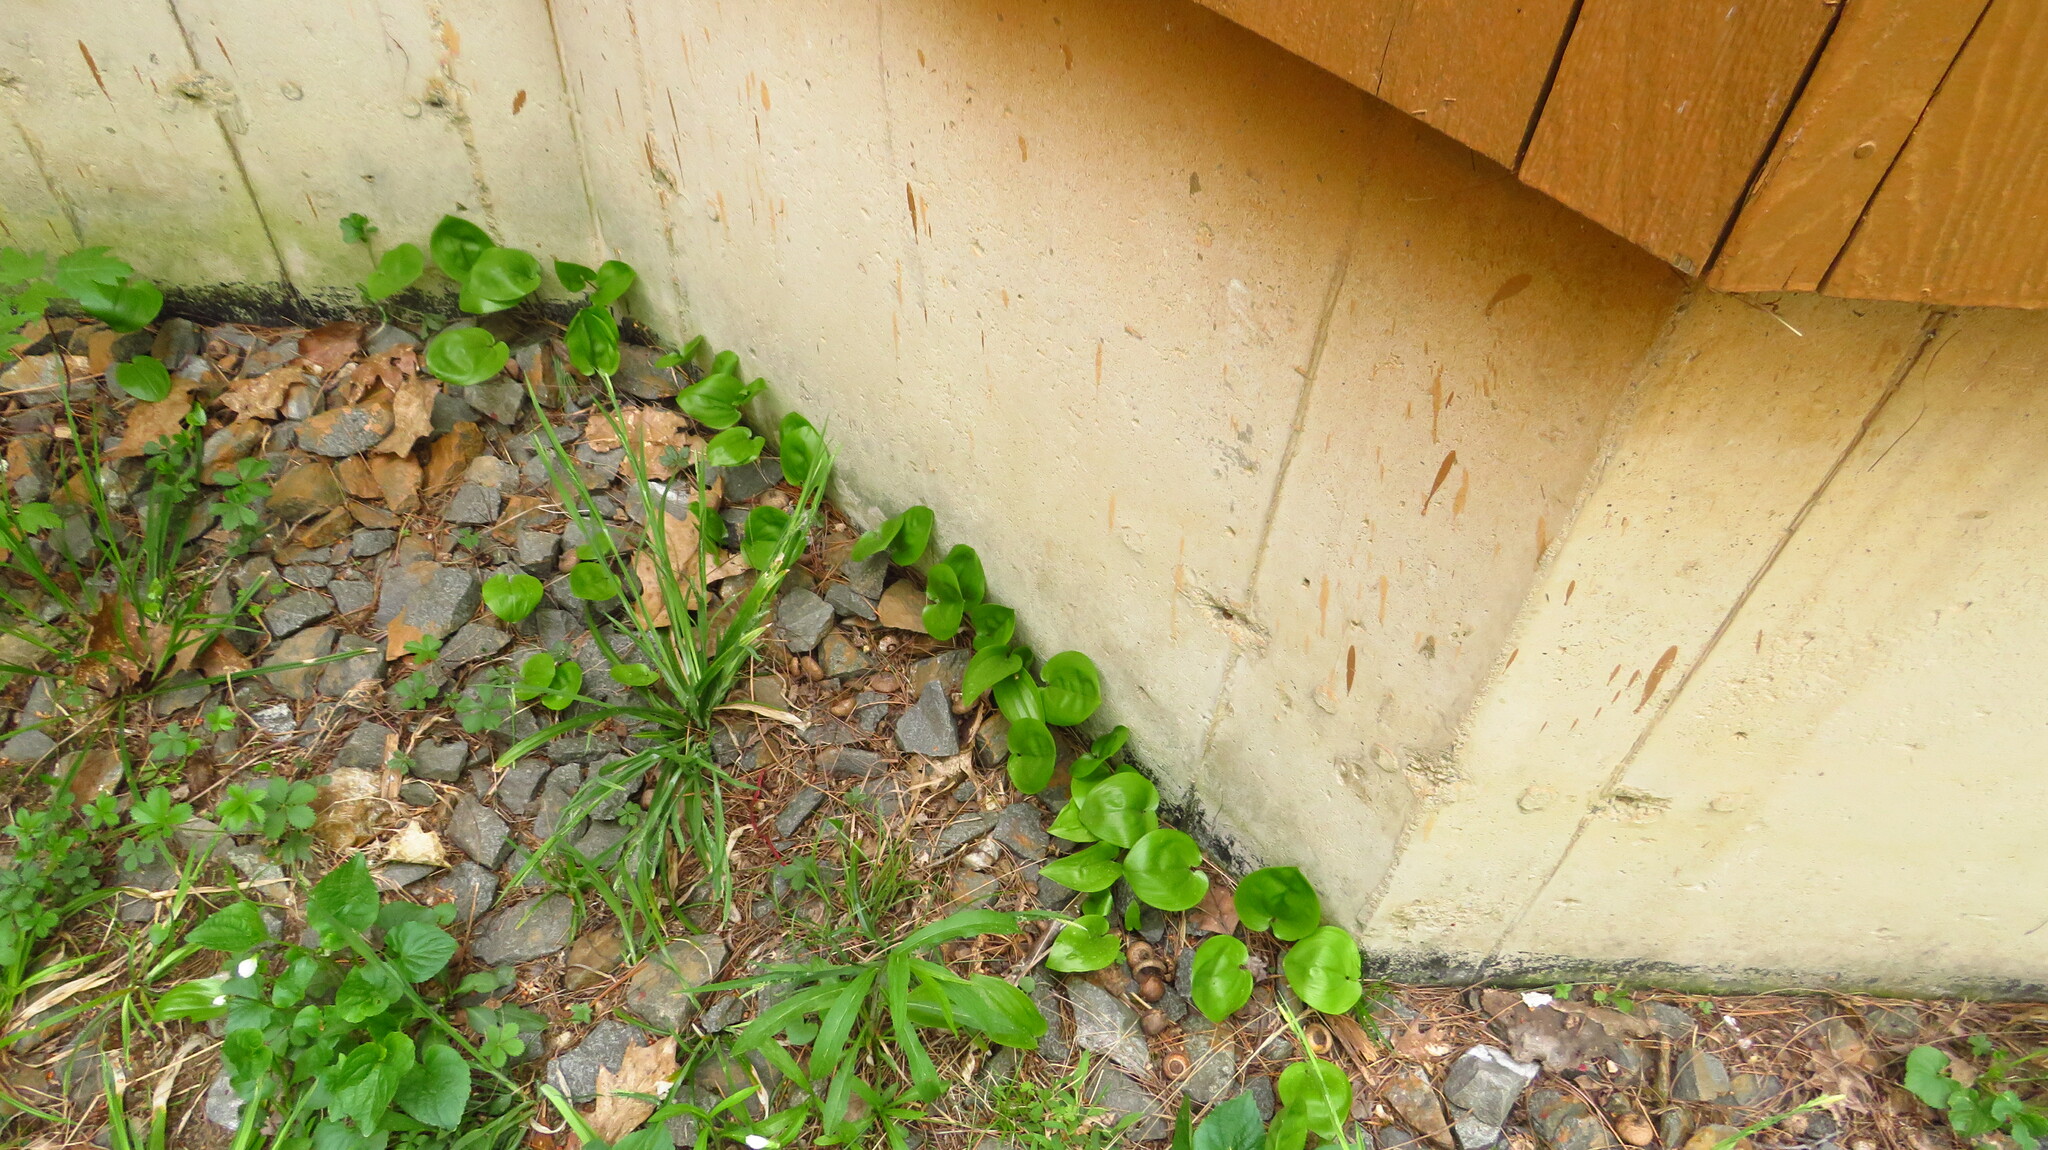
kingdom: Plantae
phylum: Tracheophyta
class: Liliopsida
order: Asparagales
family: Asparagaceae
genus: Maianthemum
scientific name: Maianthemum canadense
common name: False lily-of-the-valley
